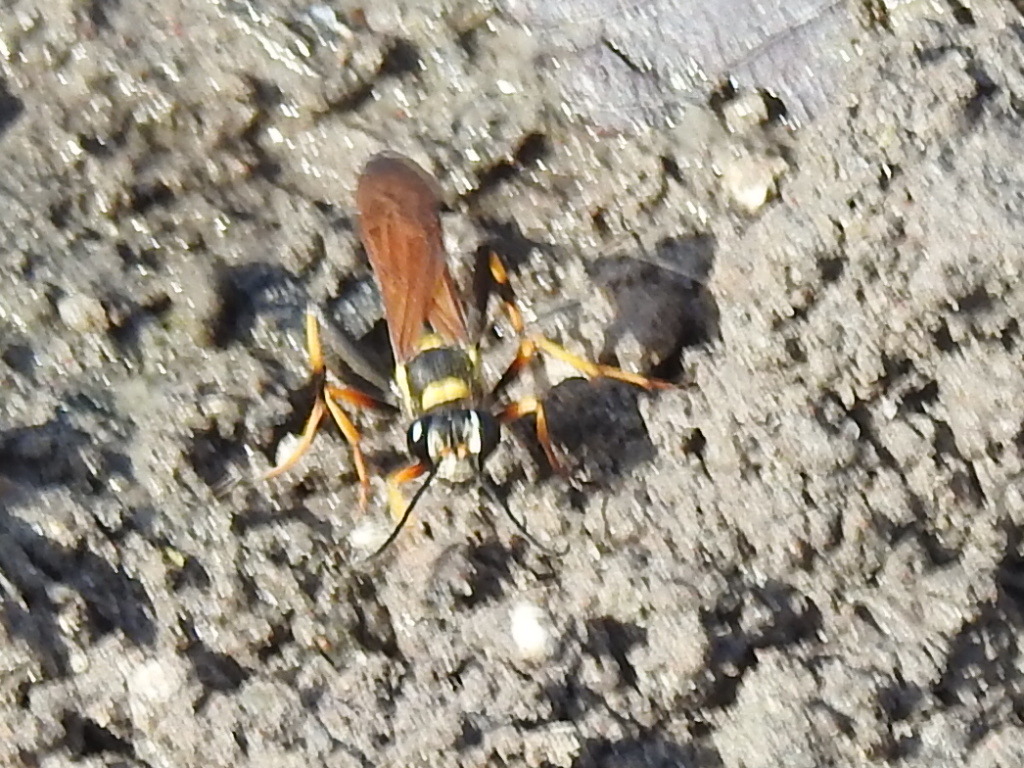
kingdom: Animalia
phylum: Arthropoda
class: Insecta
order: Hymenoptera
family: Sphecidae
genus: Sceliphron
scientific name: Sceliphron caementarium
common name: Mud dauber
